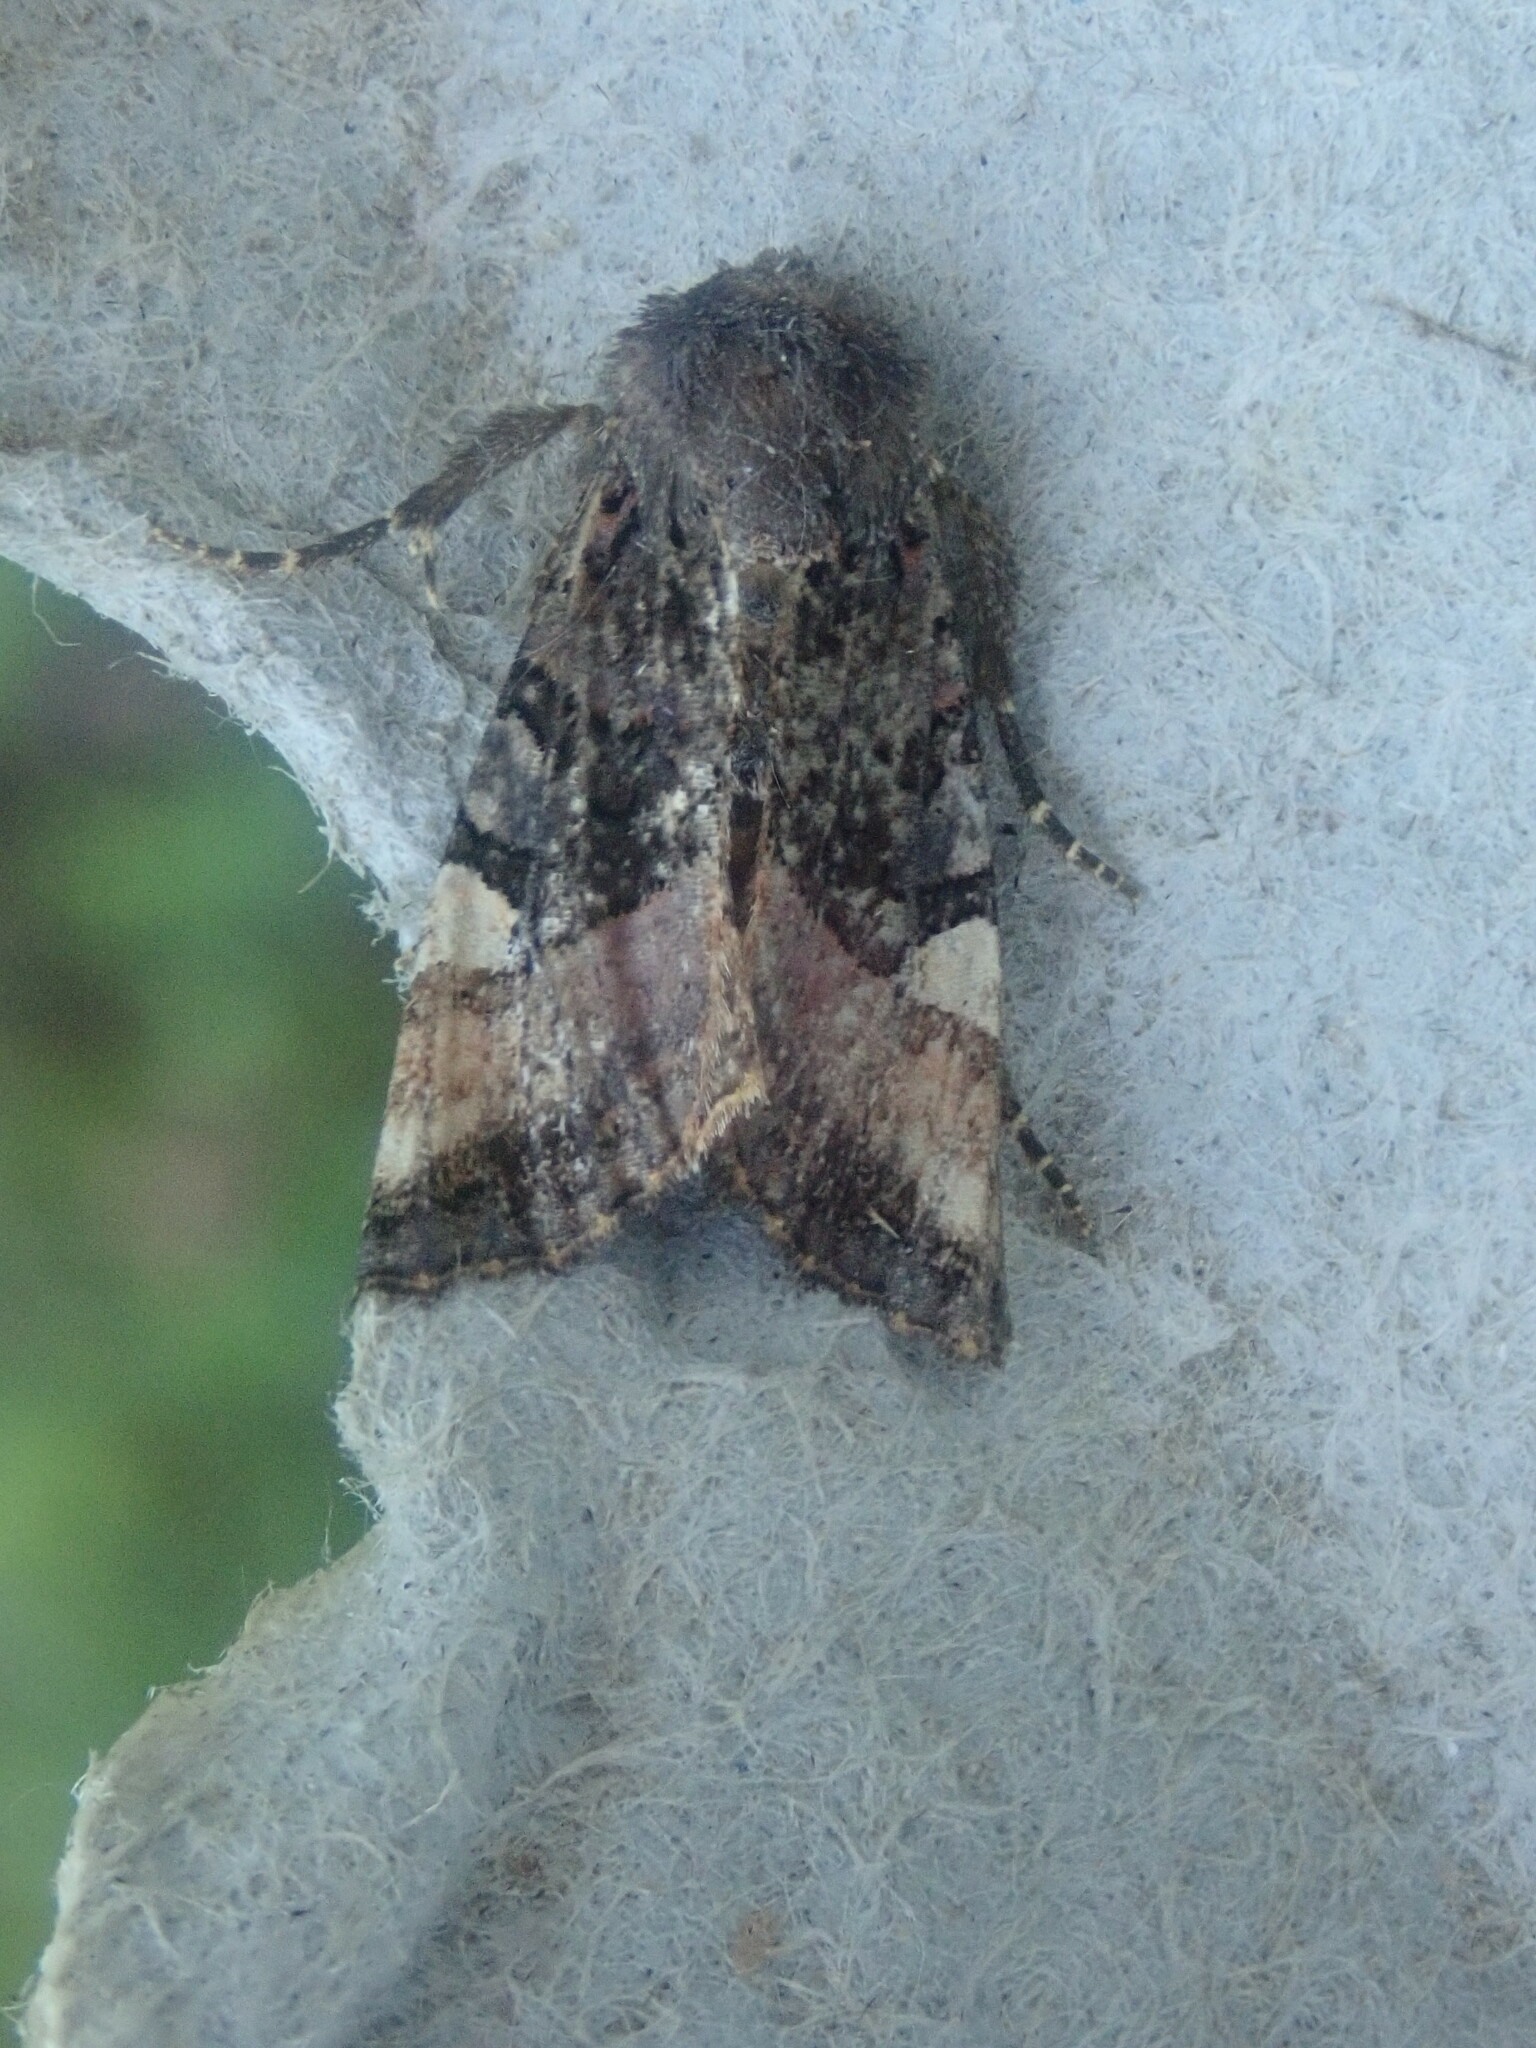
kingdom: Animalia
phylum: Arthropoda
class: Insecta
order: Lepidoptera
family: Noctuidae
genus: Euplexia
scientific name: Euplexia benesimilis
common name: American angle shades
